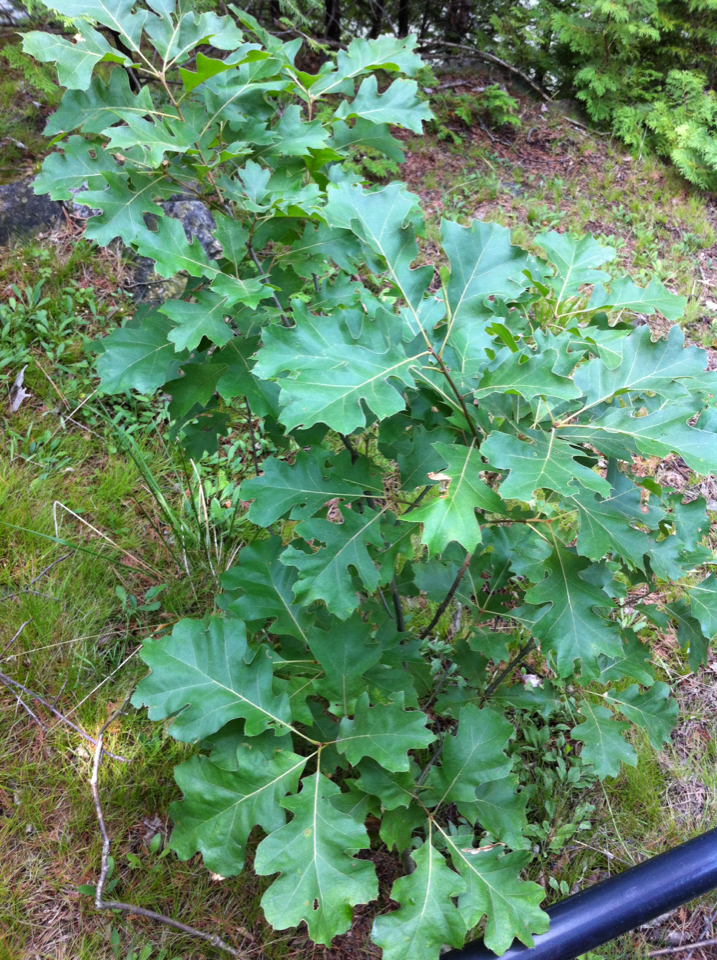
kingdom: Plantae
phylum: Tracheophyta
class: Magnoliopsida
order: Fagales
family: Fagaceae
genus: Quercus
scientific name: Quercus
